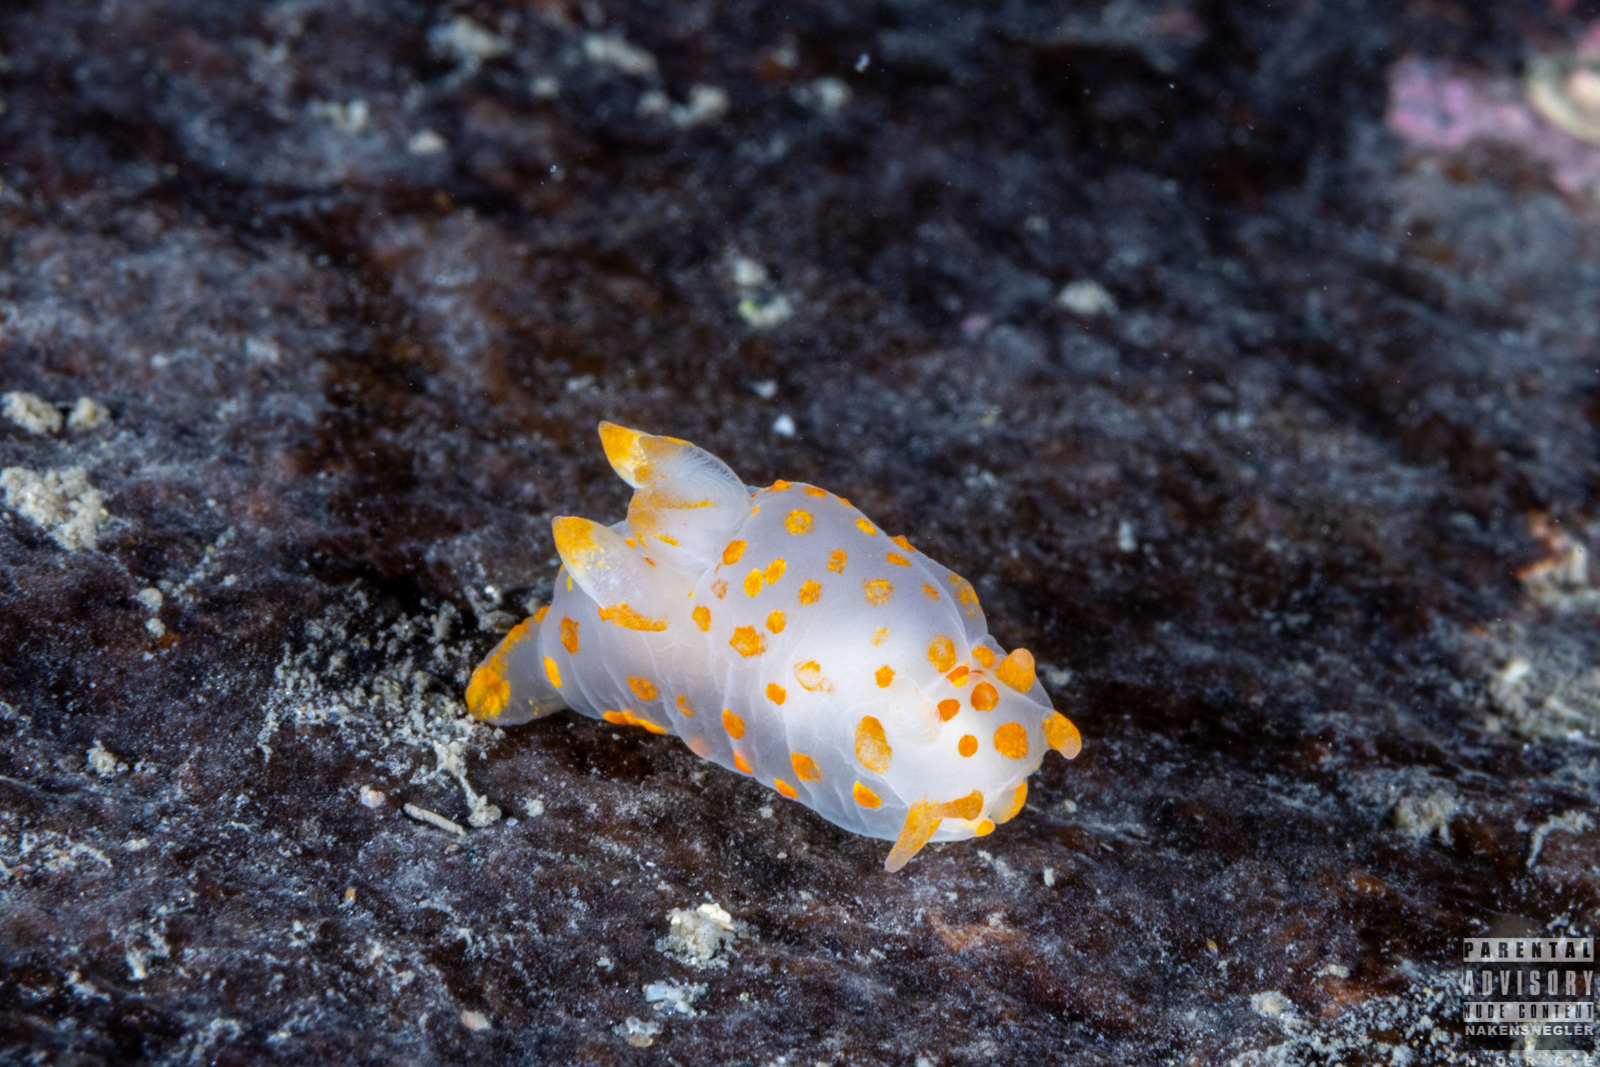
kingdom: Animalia
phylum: Mollusca
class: Gastropoda
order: Nudibranchia
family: Polyceridae
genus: Polycera
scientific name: Polycera quadrilineata
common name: Four-striped polycera
